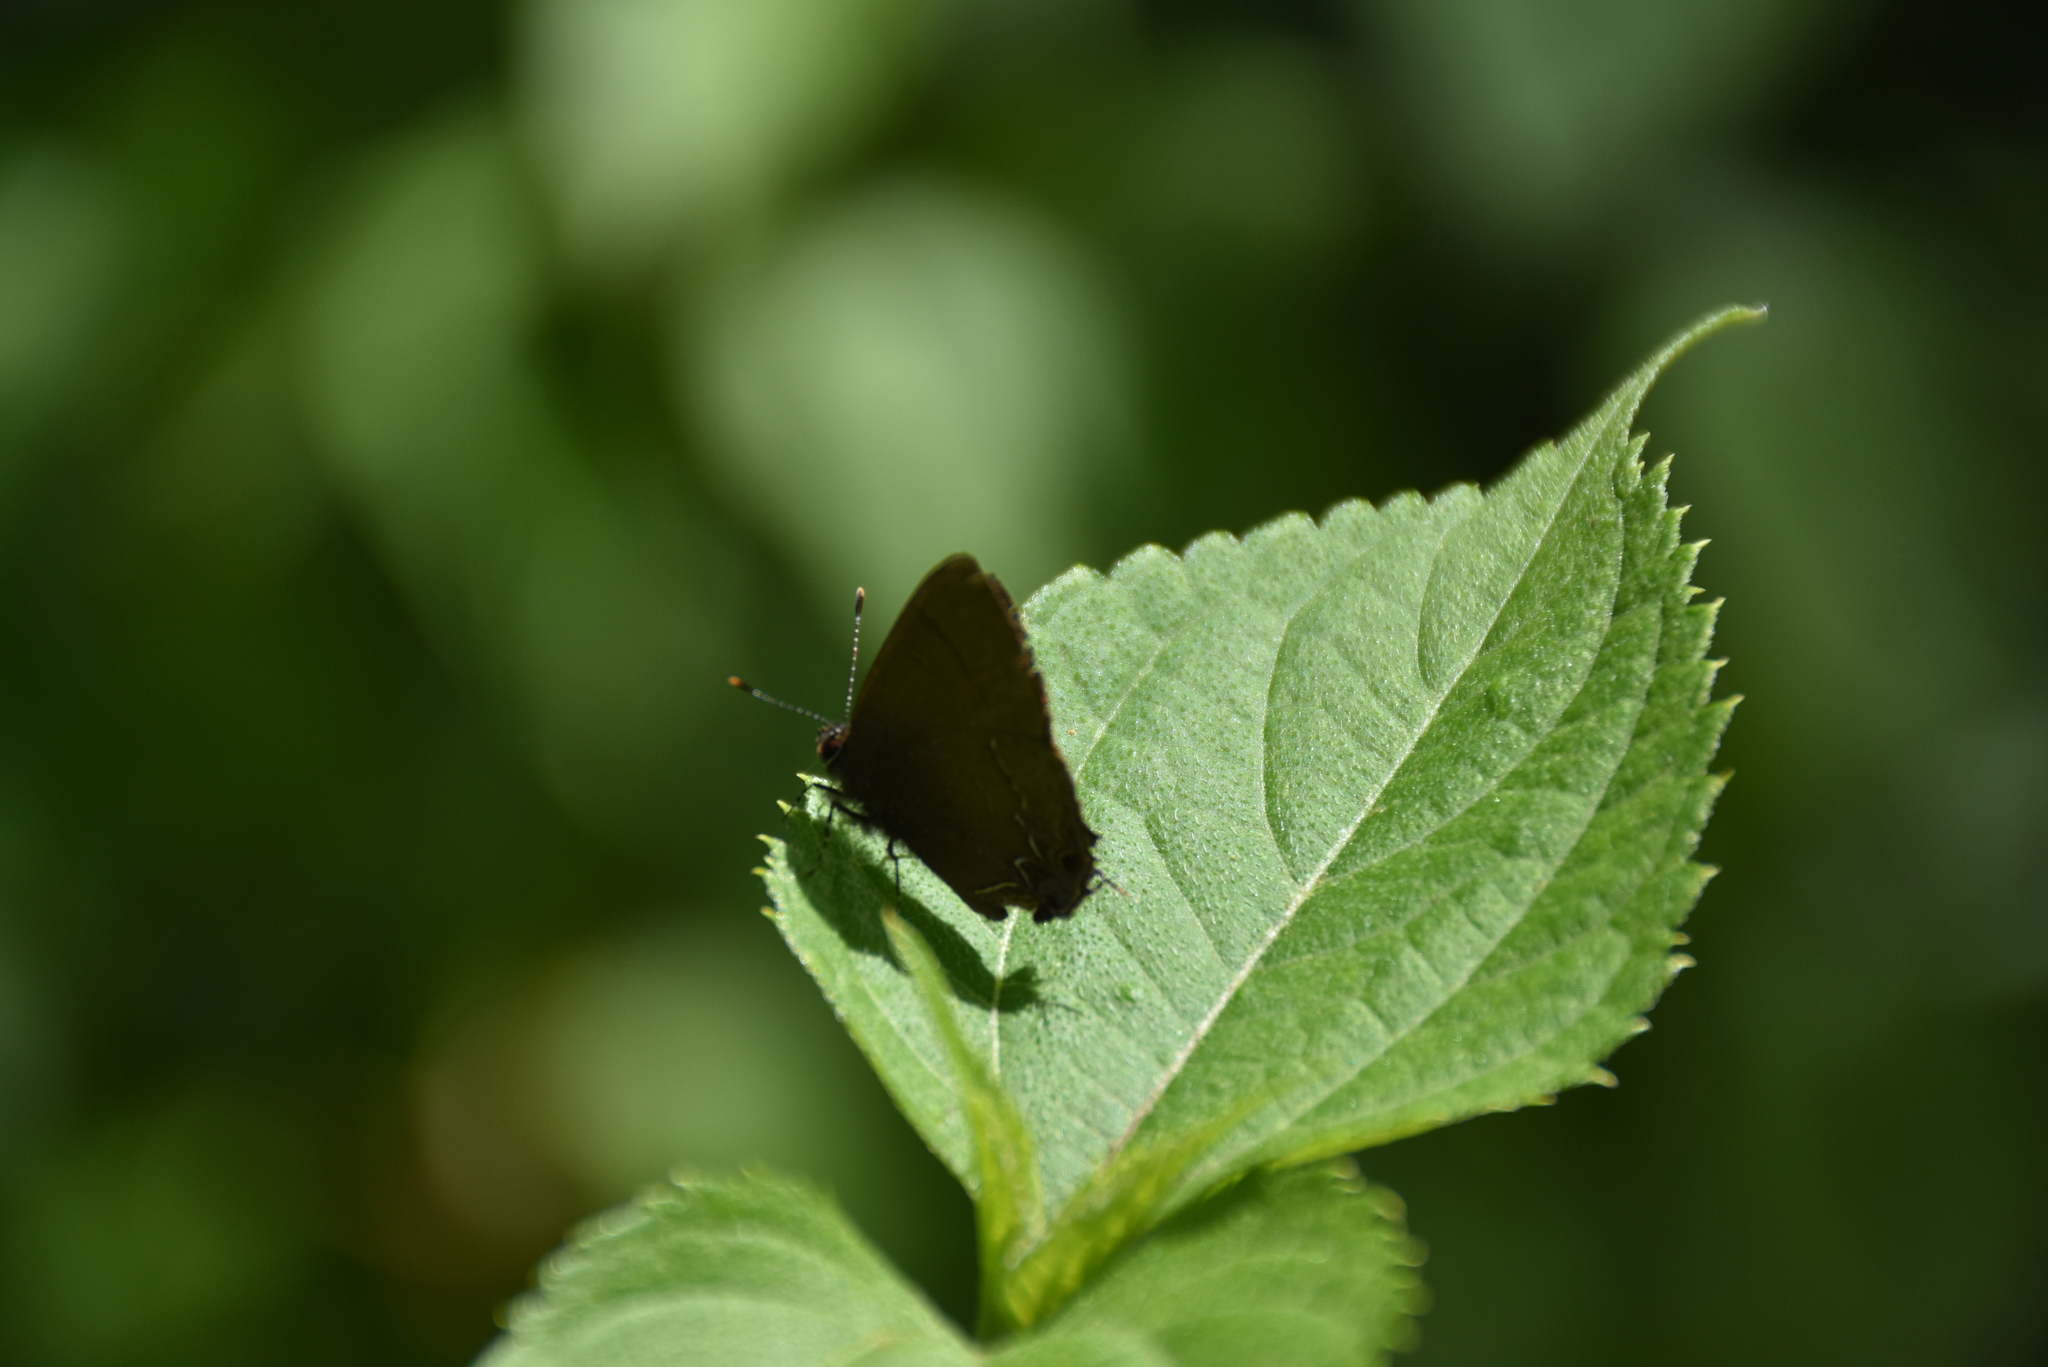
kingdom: Animalia
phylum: Arthropoda
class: Insecta
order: Lepidoptera
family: Lycaenidae
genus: Electrostrymon
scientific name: Electrostrymon denarius
